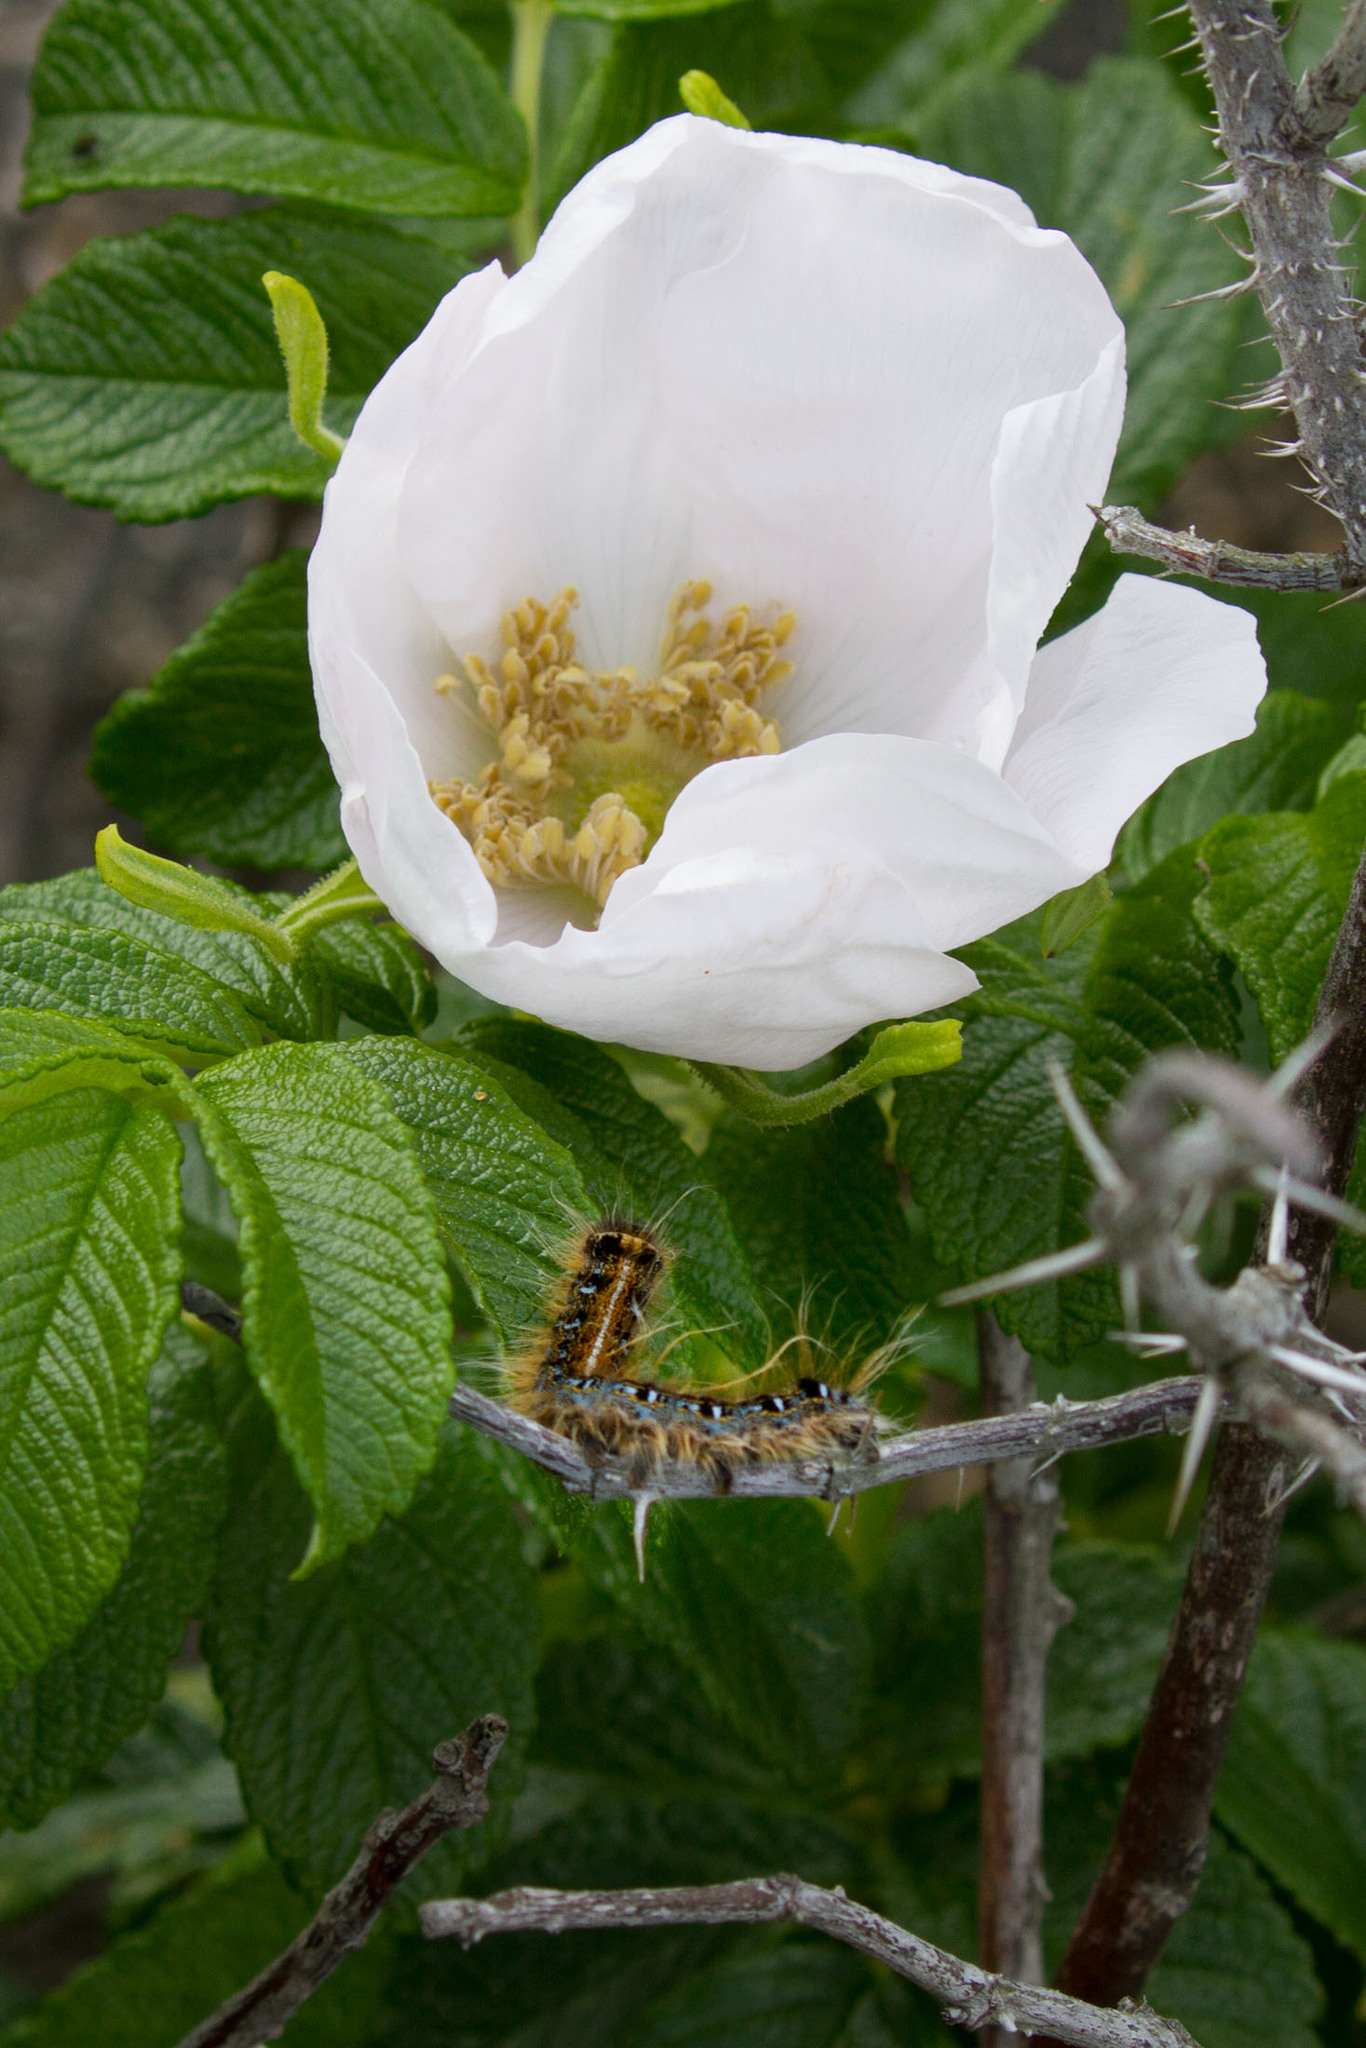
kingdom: Animalia
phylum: Arthropoda
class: Insecta
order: Lepidoptera
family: Lasiocampidae
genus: Malacosoma
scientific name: Malacosoma americana
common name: Eastern tent caterpillar moth
